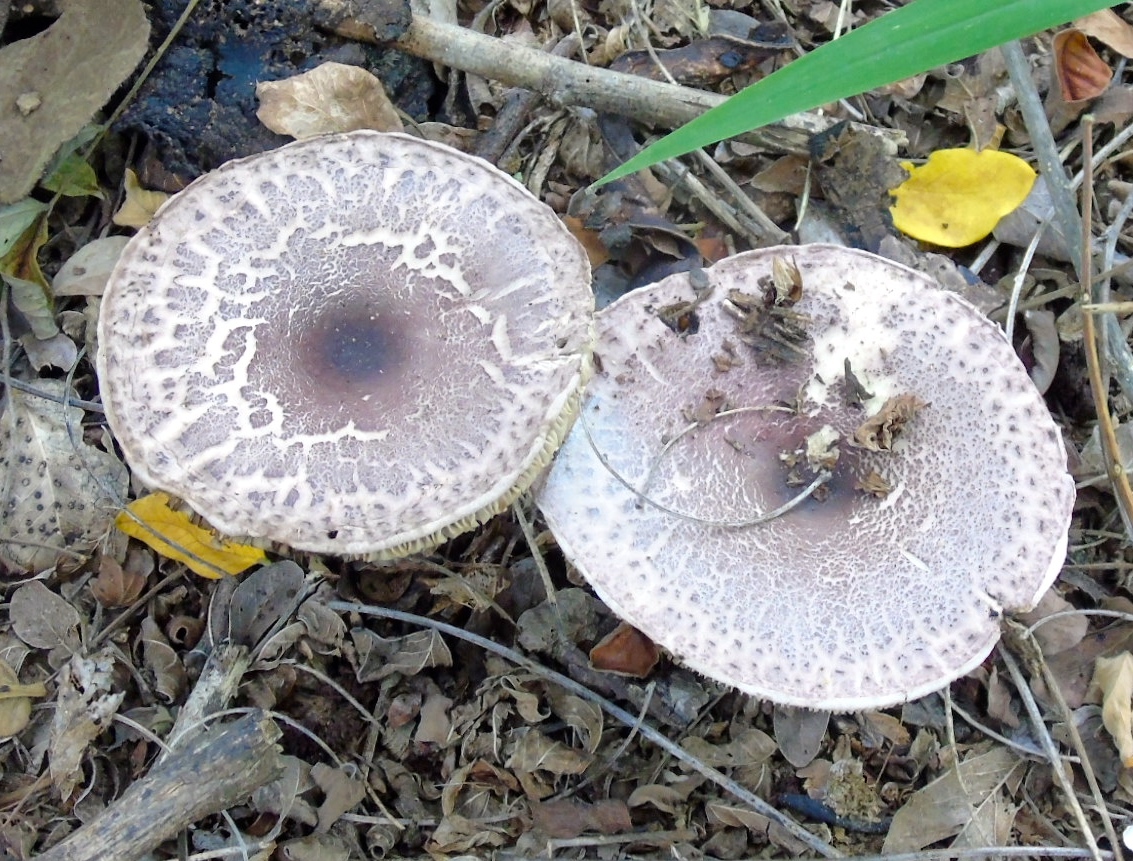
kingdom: Fungi
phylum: Basidiomycota
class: Agaricomycetes
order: Agaricales
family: Agaricaceae
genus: Leucoagaricus
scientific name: Leucoagaricus
